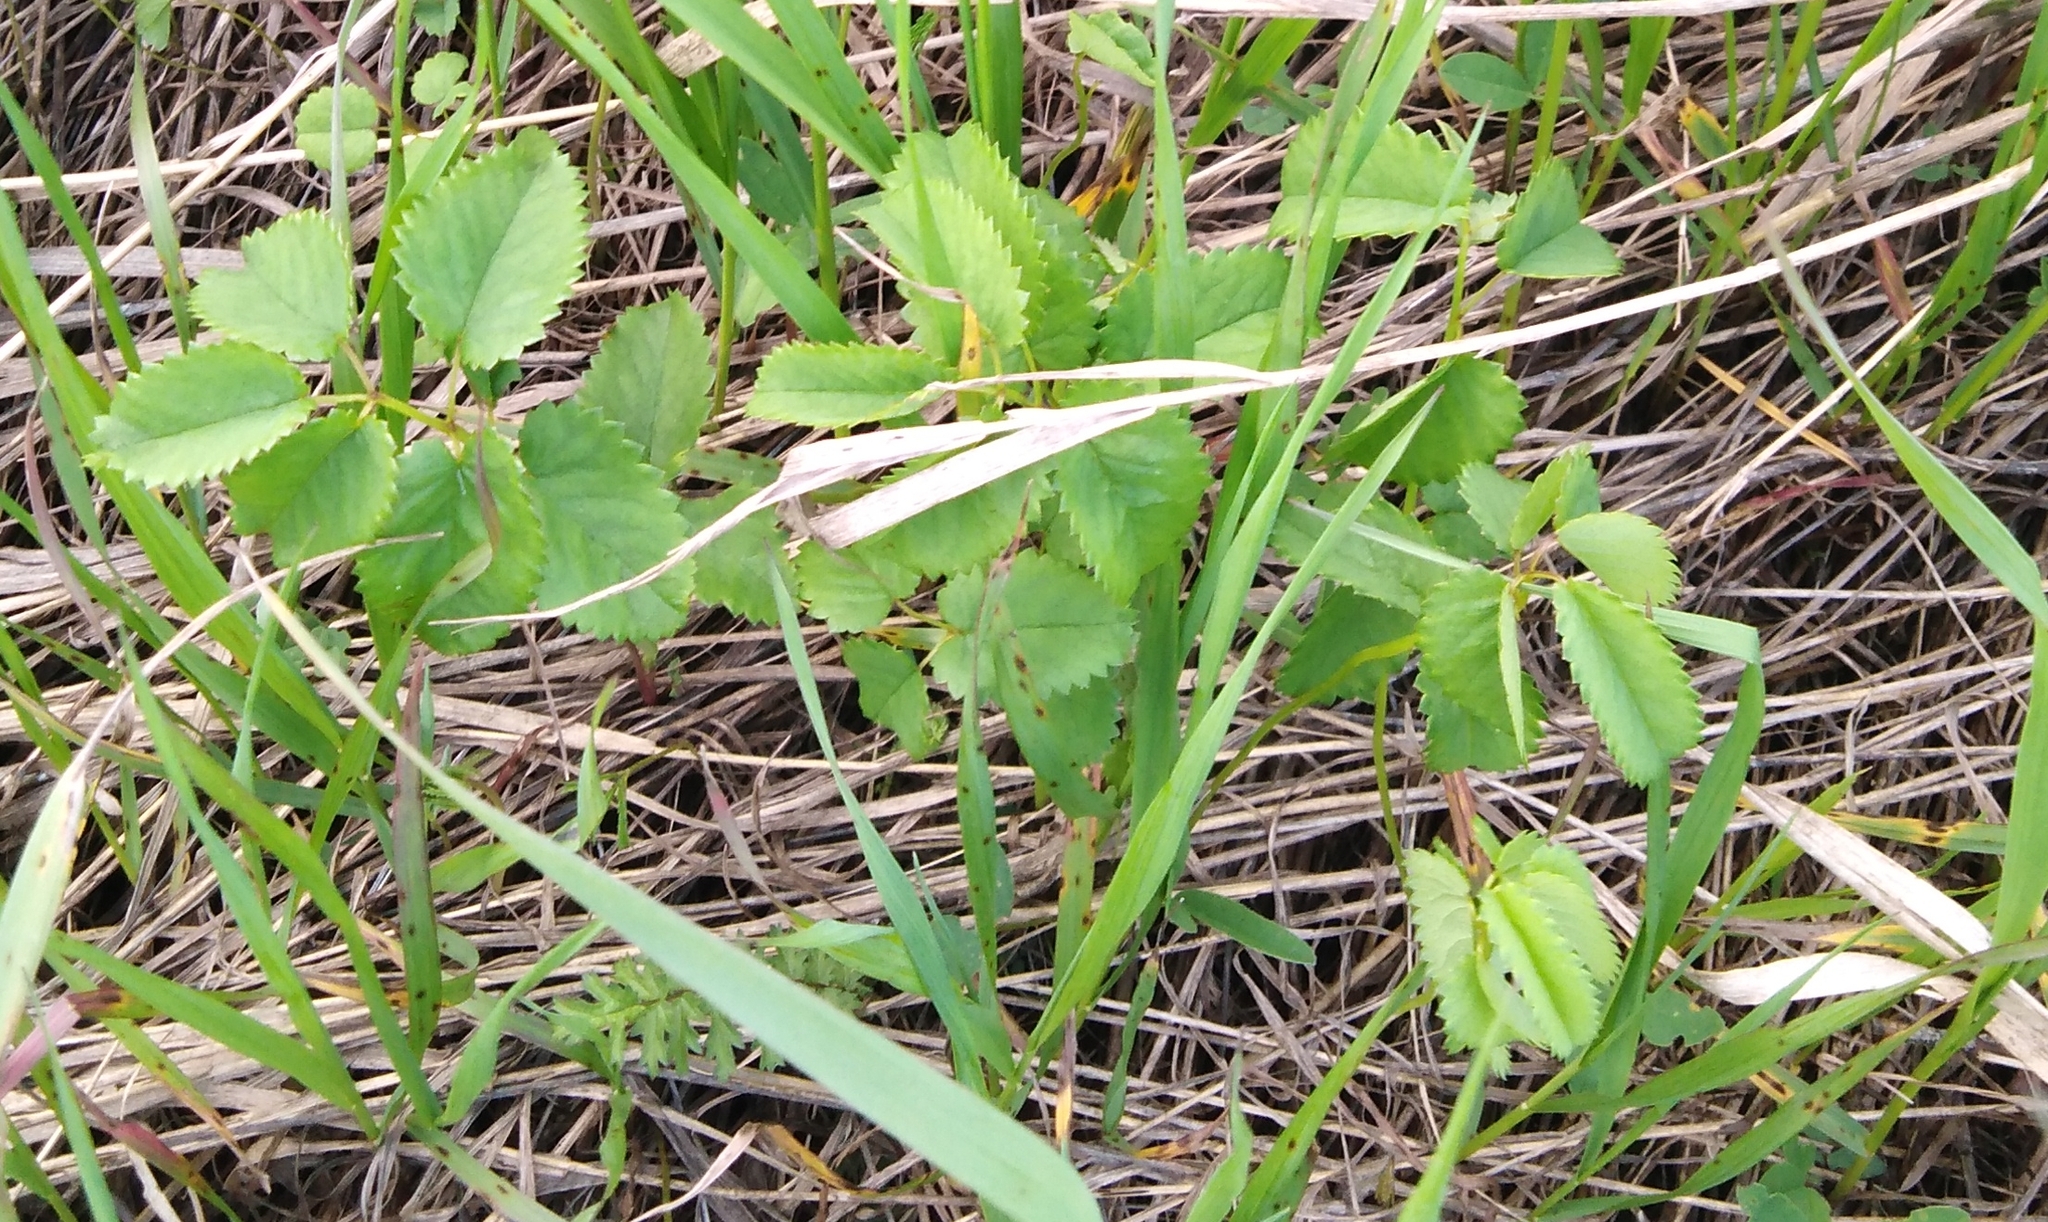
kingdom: Plantae
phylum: Tracheophyta
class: Magnoliopsida
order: Rosales
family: Rosaceae
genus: Sanguisorba
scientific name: Sanguisorba officinalis
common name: Great burnet
